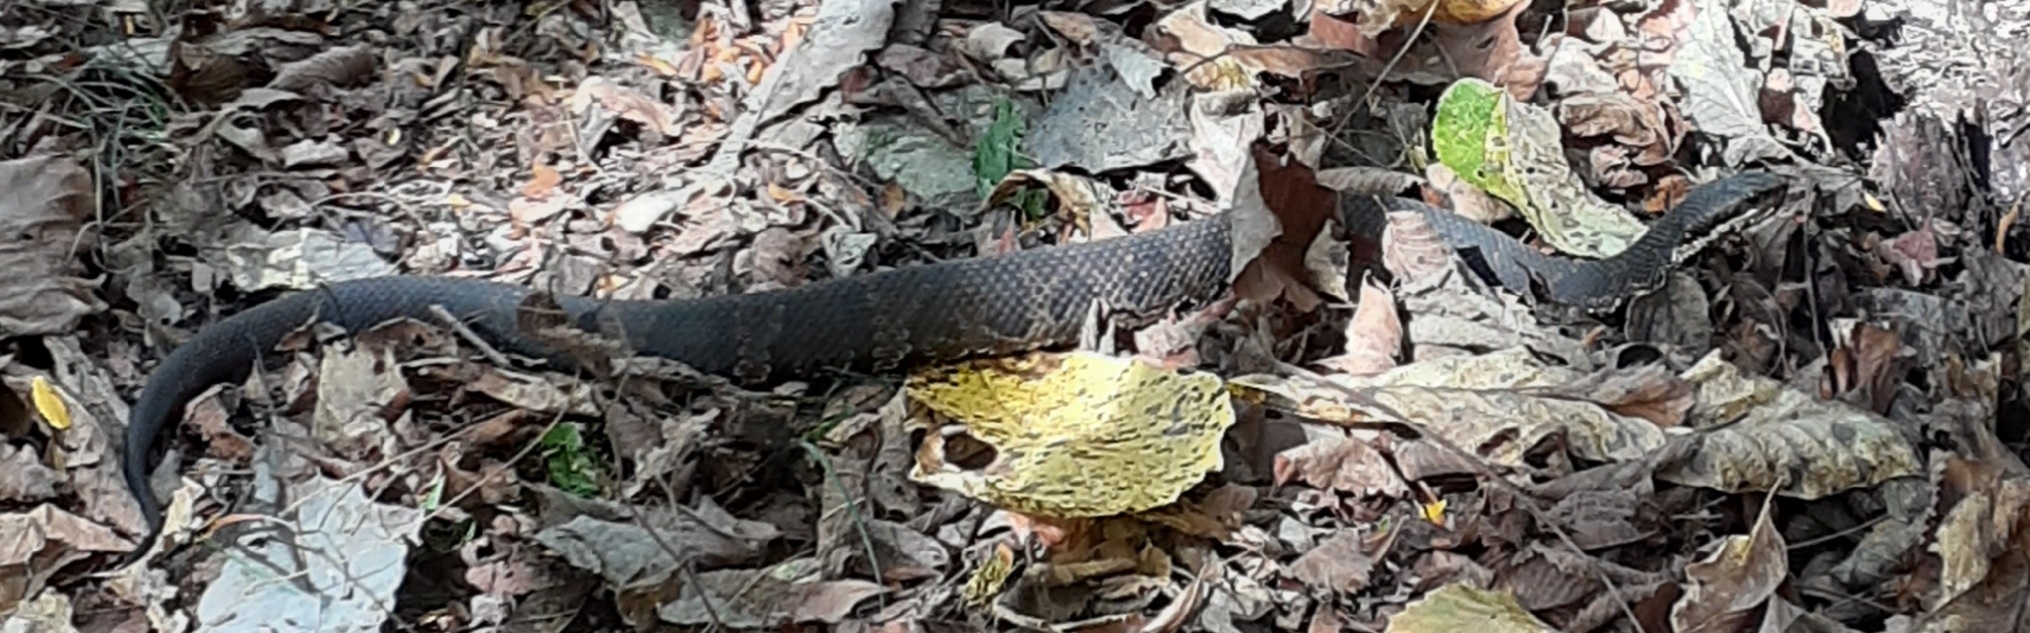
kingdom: Animalia
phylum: Chordata
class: Squamata
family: Viperidae
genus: Agkistrodon
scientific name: Agkistrodon piscivorus
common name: Cottonmouth
